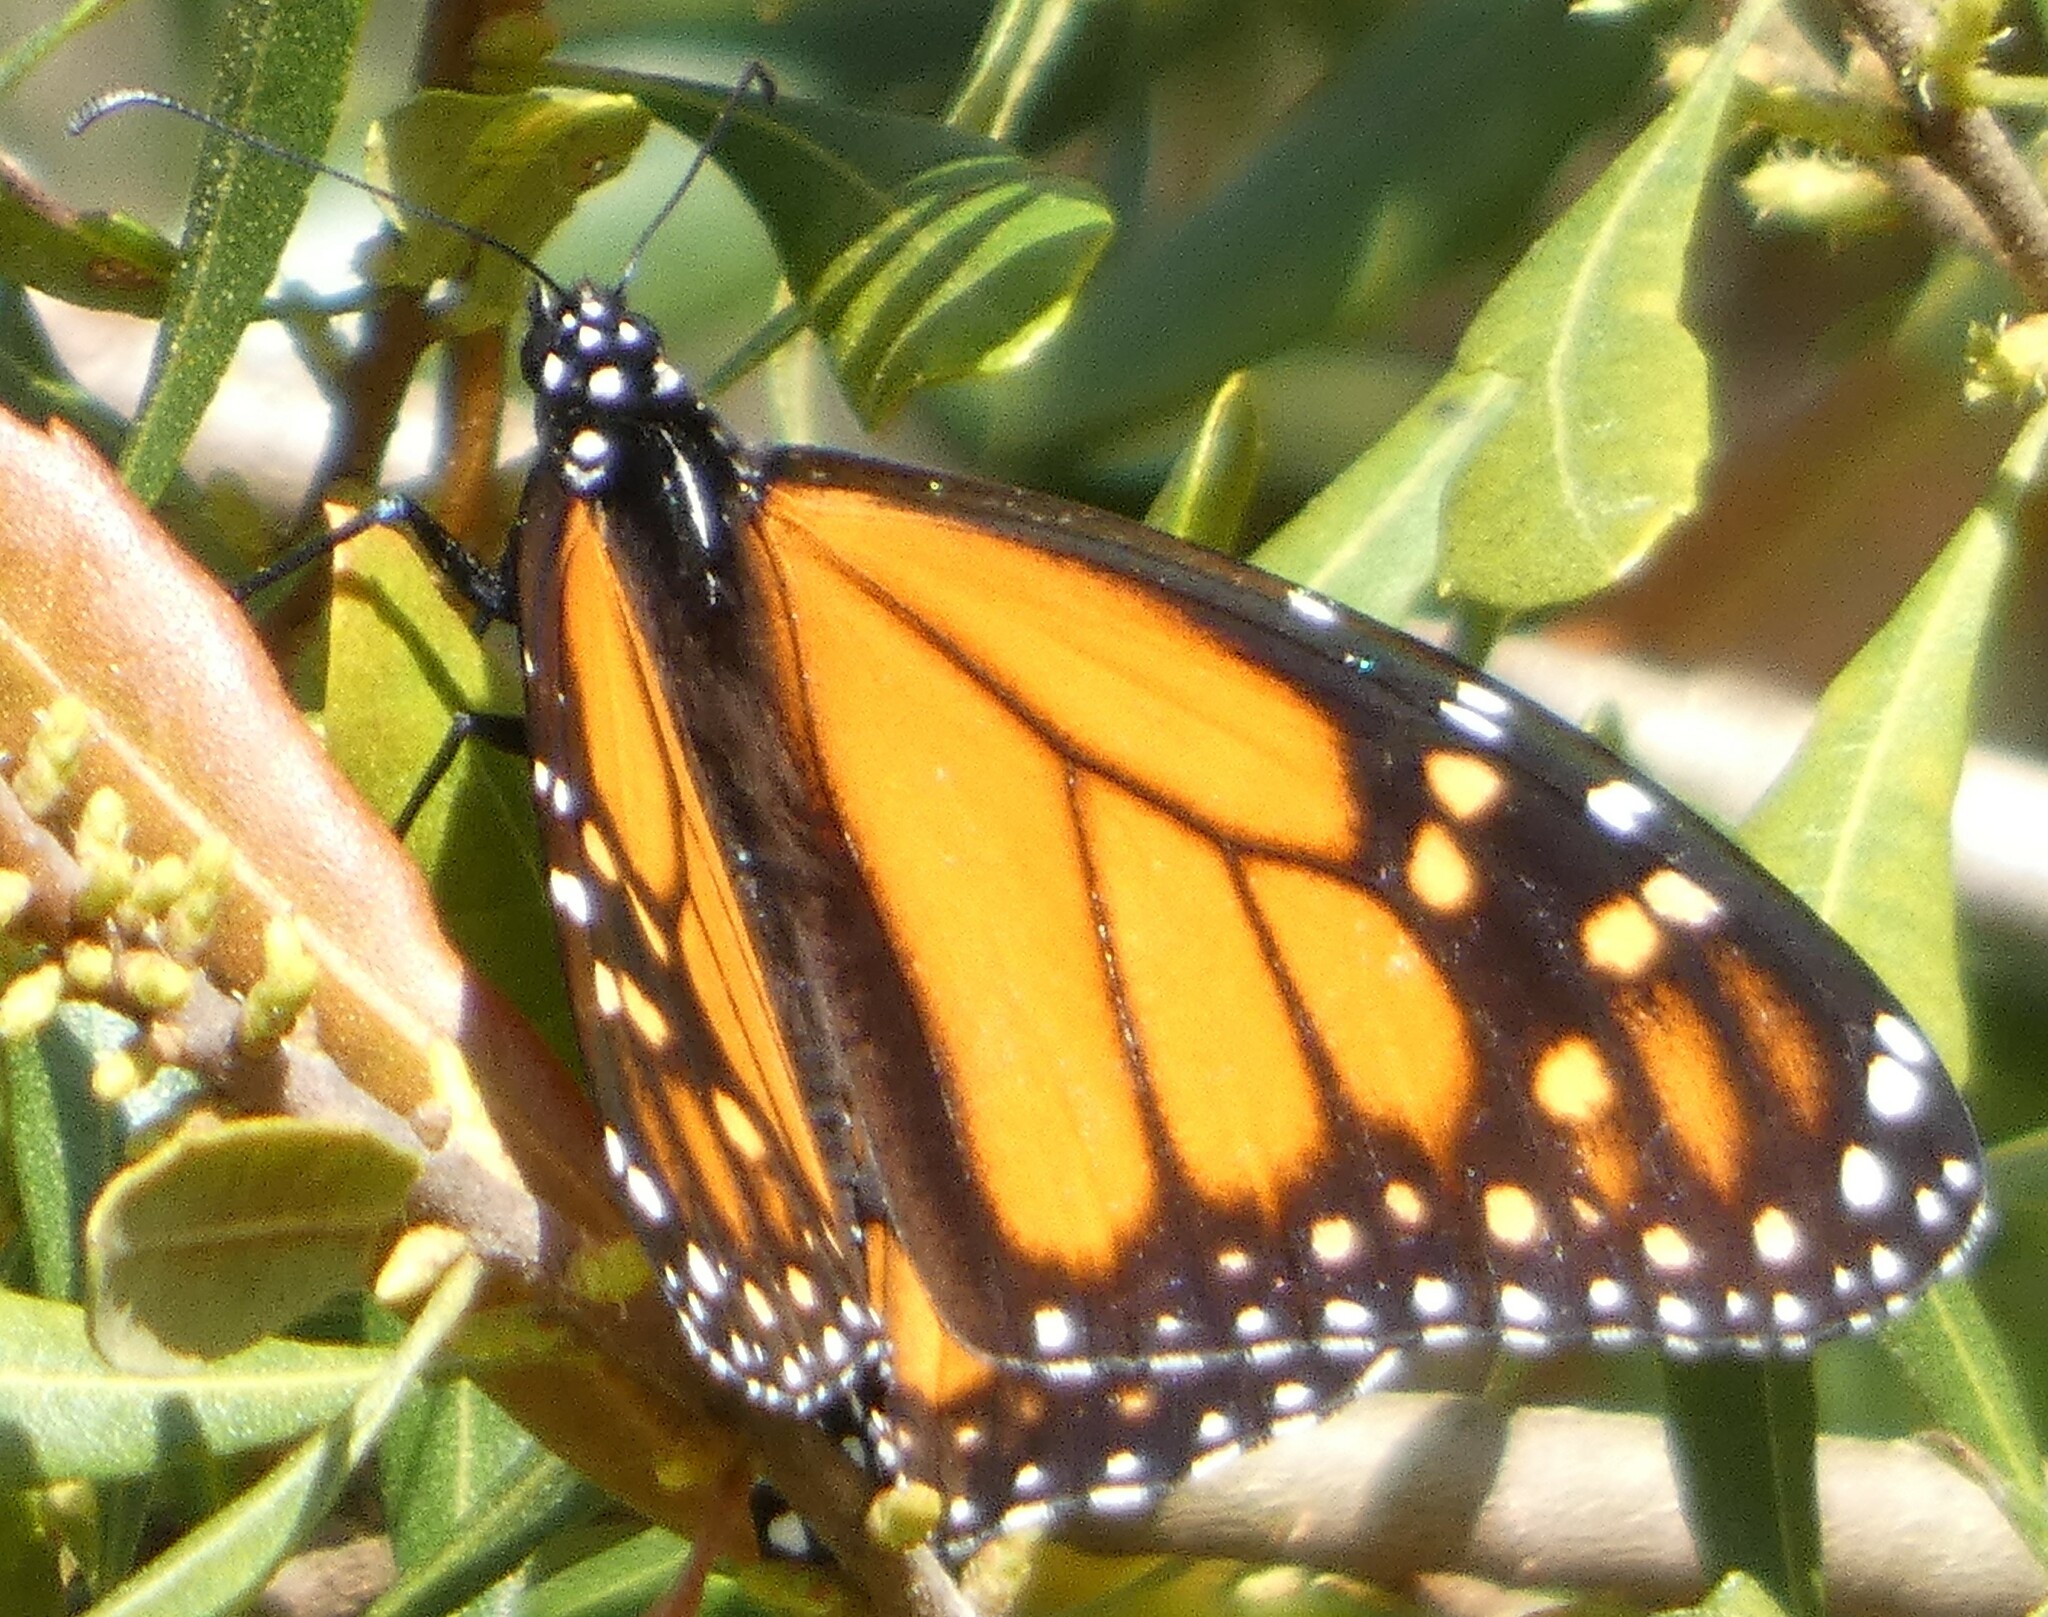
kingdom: Animalia
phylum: Arthropoda
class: Insecta
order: Lepidoptera
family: Nymphalidae
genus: Danaus
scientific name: Danaus plexippus
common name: Monarch
